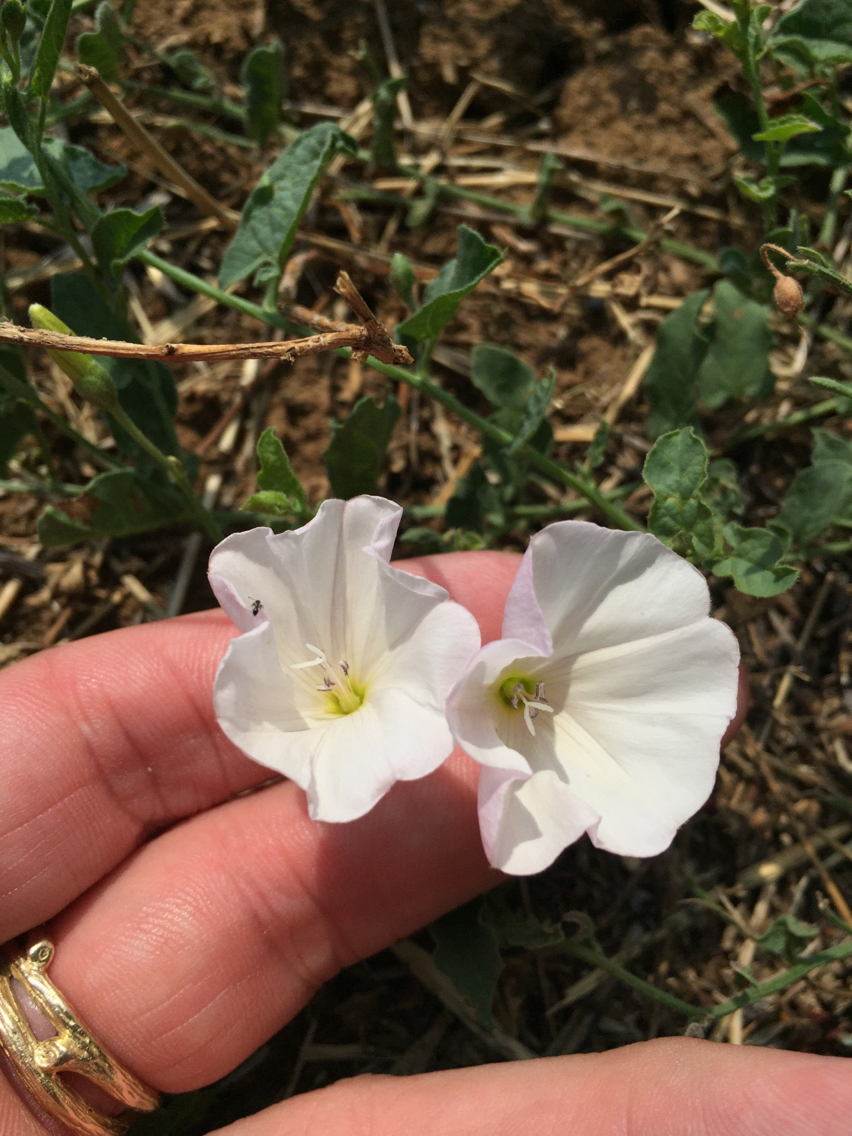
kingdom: Plantae
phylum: Tracheophyta
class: Magnoliopsida
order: Solanales
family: Convolvulaceae
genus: Convolvulus
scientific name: Convolvulus arvensis
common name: Field bindweed
